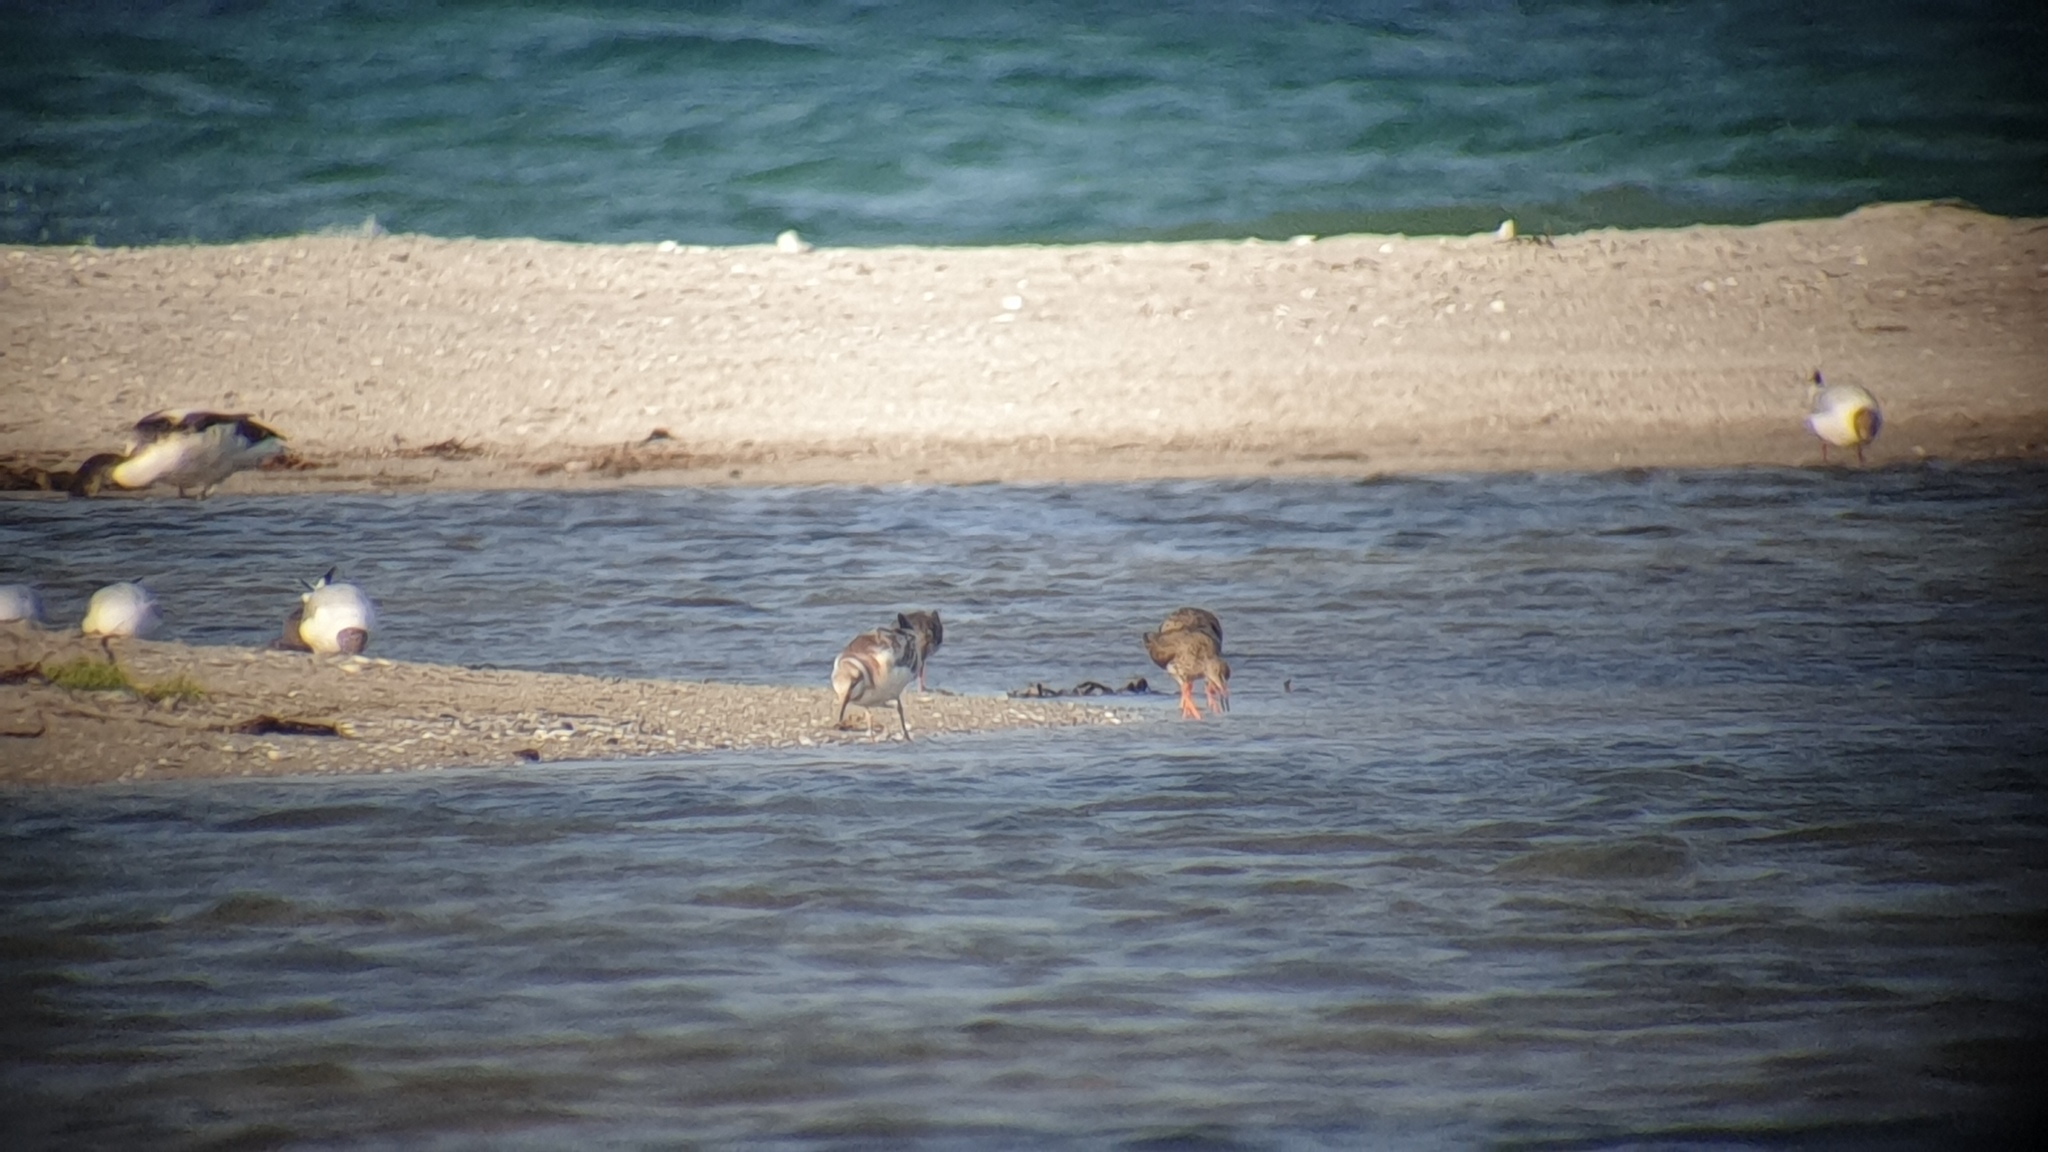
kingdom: Animalia
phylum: Chordata
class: Aves
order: Charadriiformes
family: Scolopacidae
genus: Tringa
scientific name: Tringa totanus
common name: Common redshank
